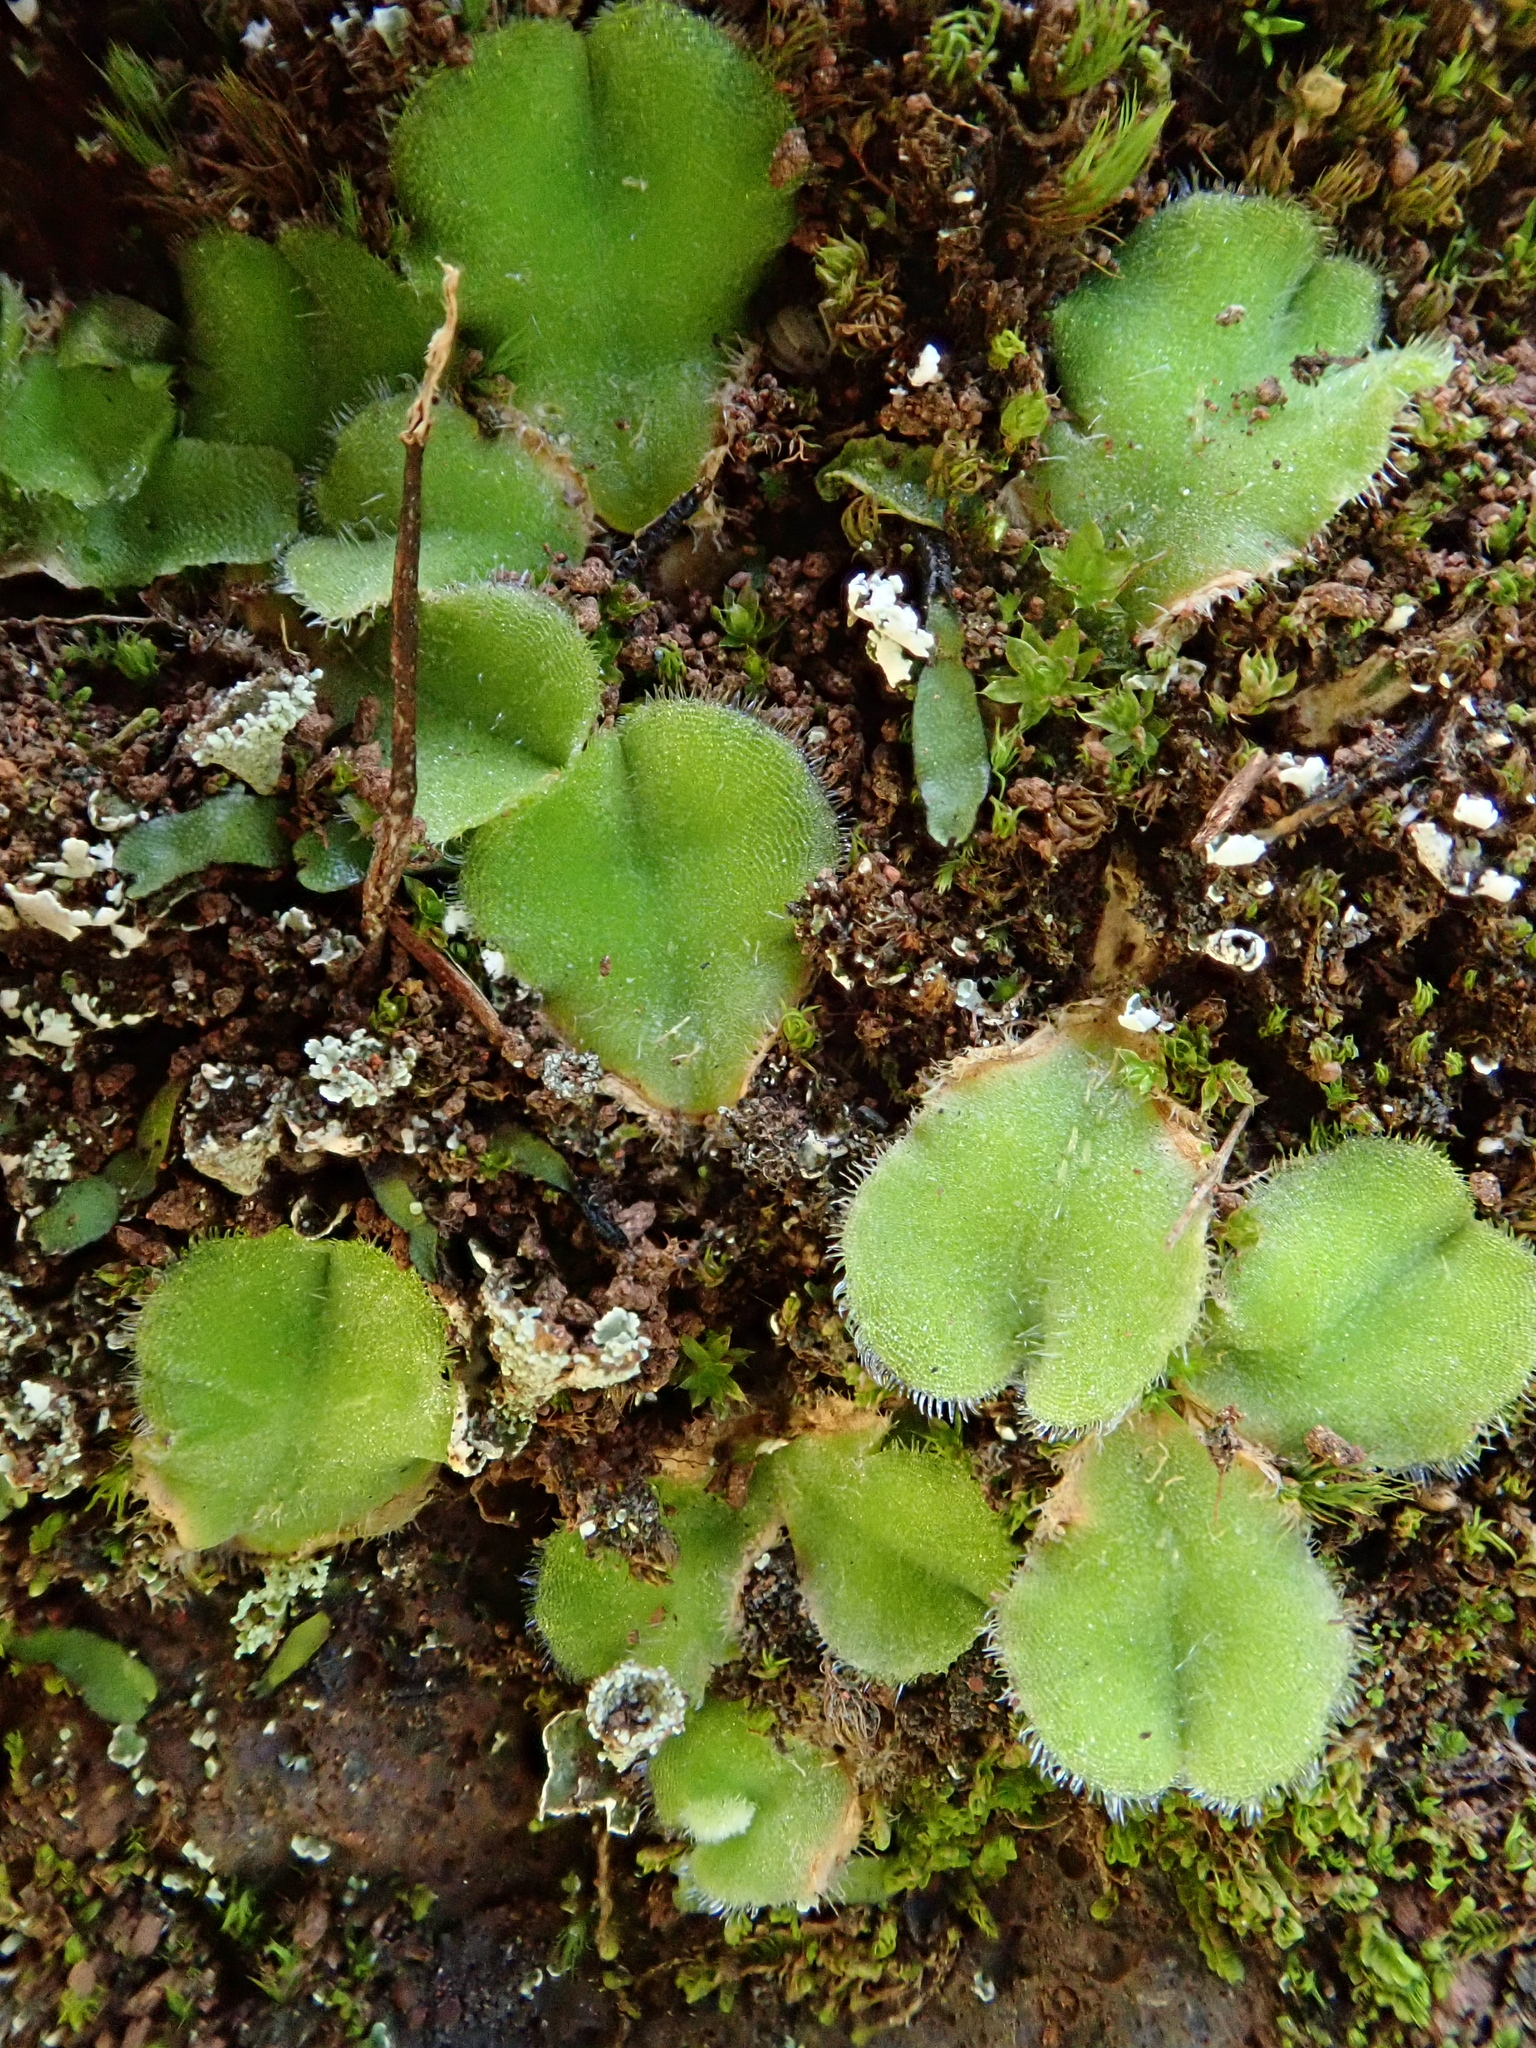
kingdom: Plantae
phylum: Marchantiophyta
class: Marchantiopsida
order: Marchantiales
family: Ricciaceae
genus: Riccia
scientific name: Riccia gougetiana
